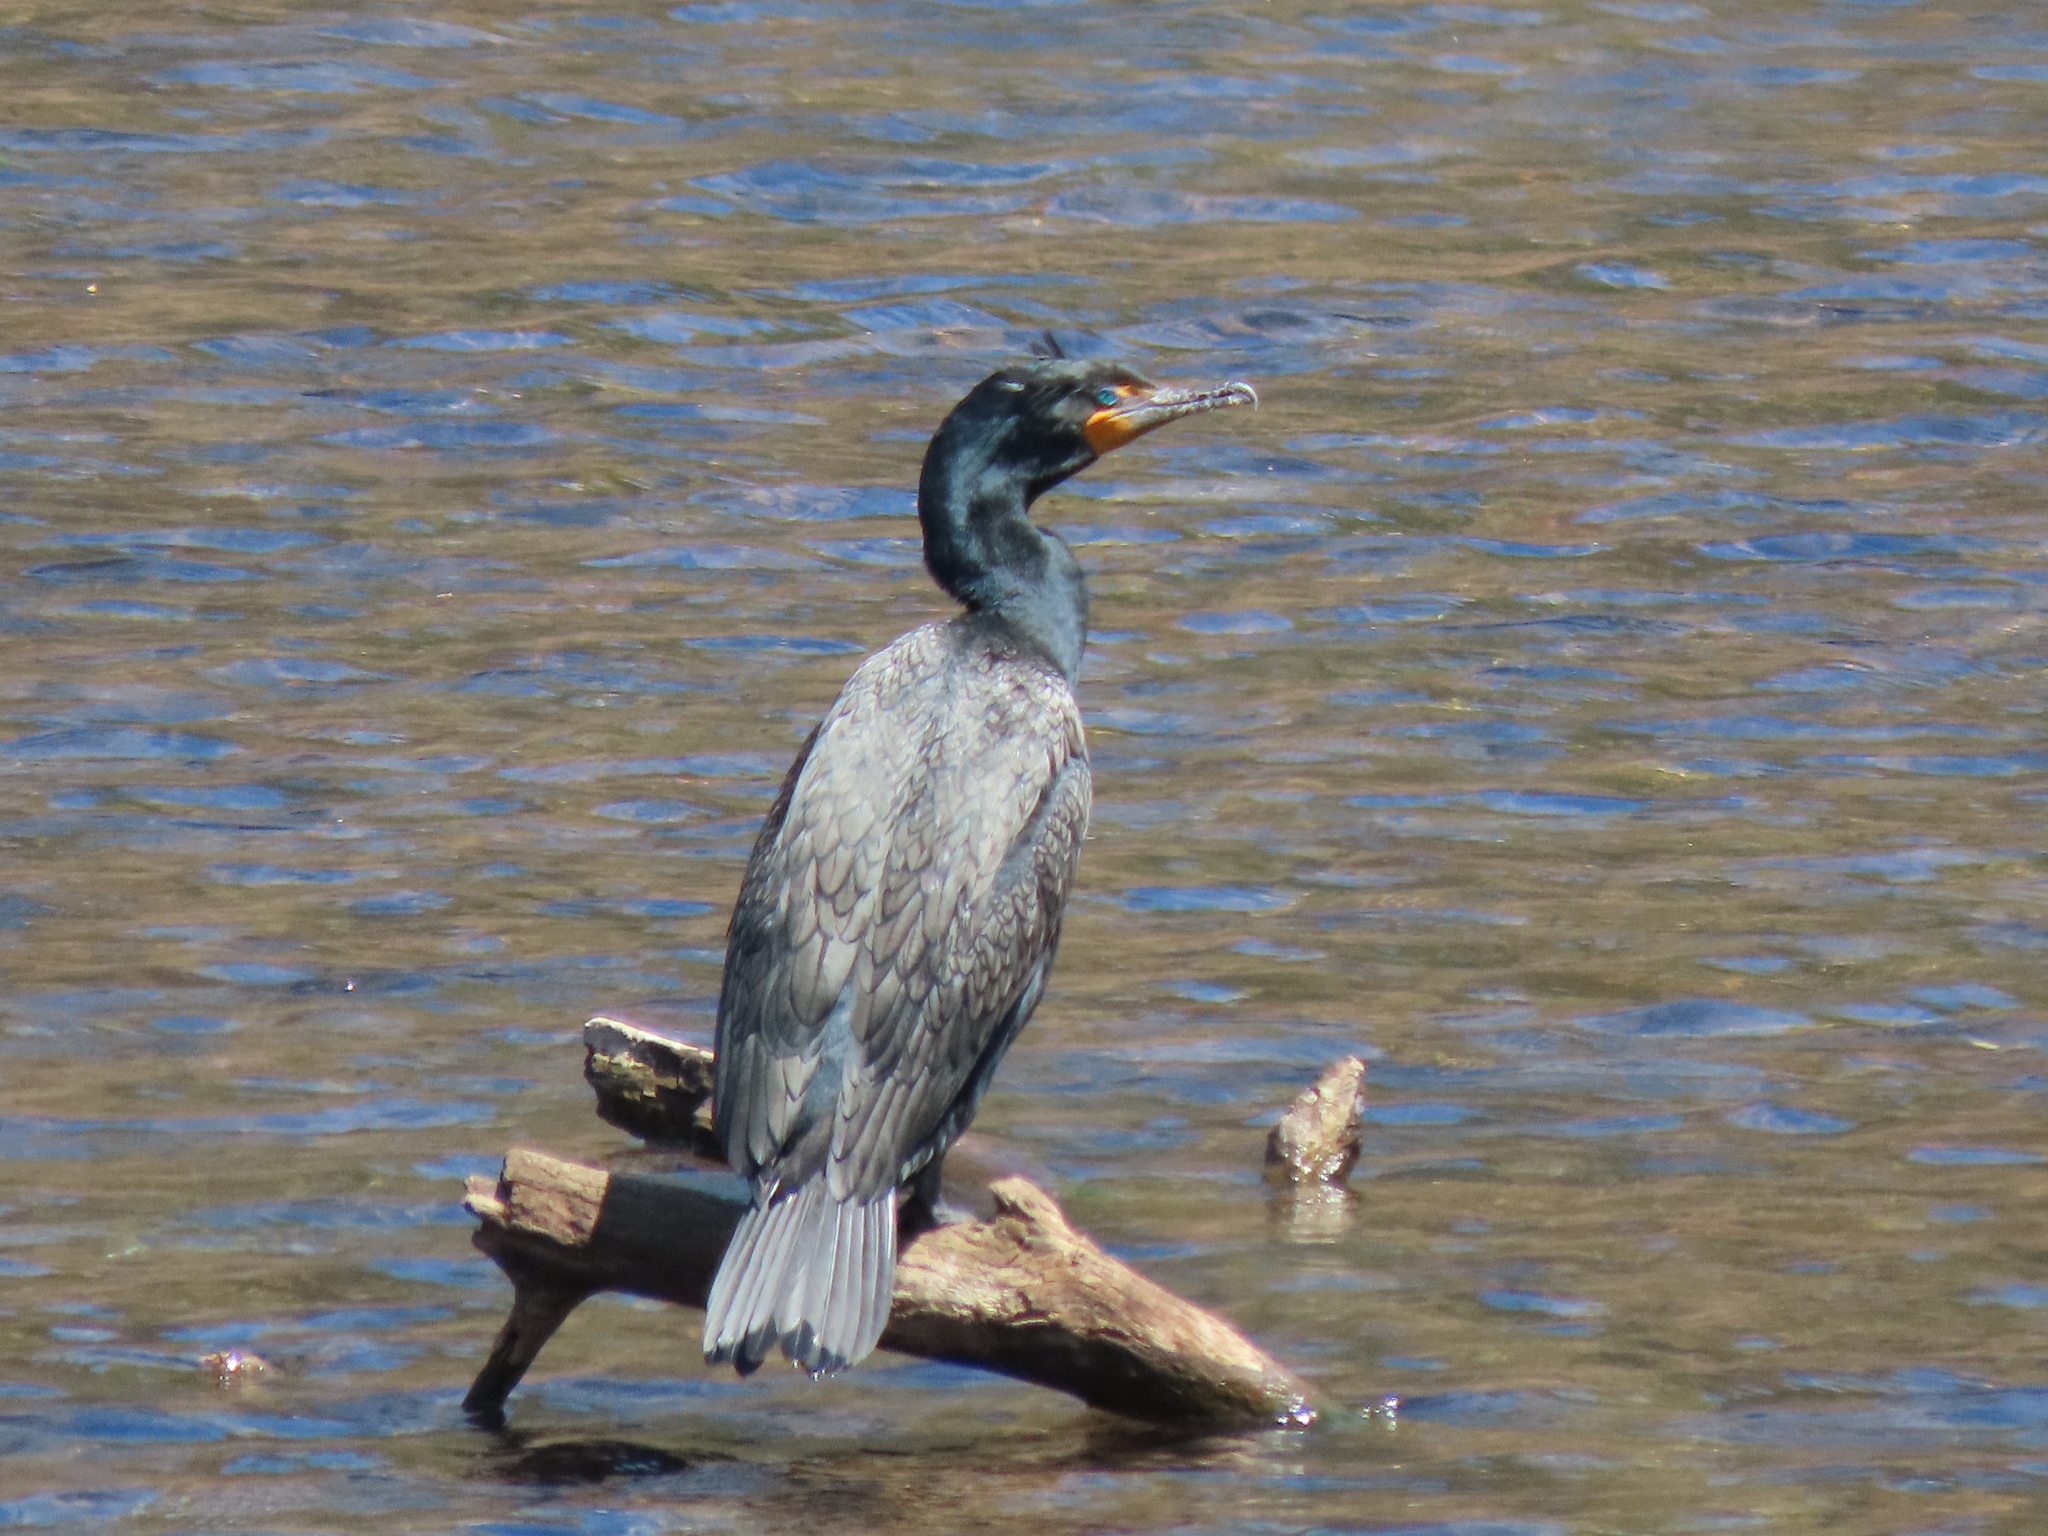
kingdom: Animalia
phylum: Chordata
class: Aves
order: Suliformes
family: Phalacrocoracidae
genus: Phalacrocorax
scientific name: Phalacrocorax auritus
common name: Double-crested cormorant
